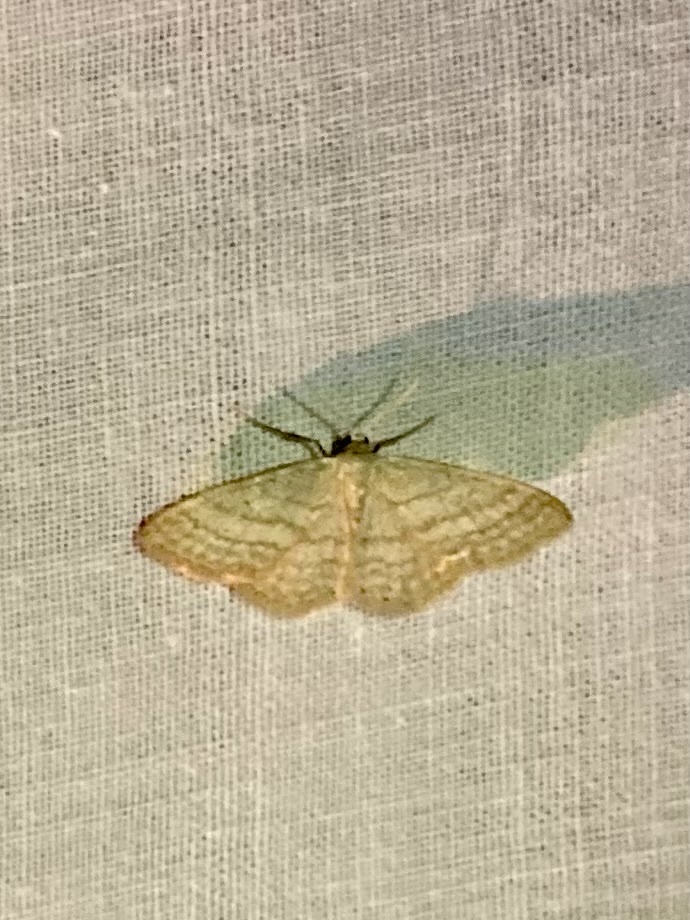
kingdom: Animalia
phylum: Arthropoda
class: Insecta
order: Lepidoptera
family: Geometridae
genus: Idaea
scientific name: Idaea subsericeata
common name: Satin wave
